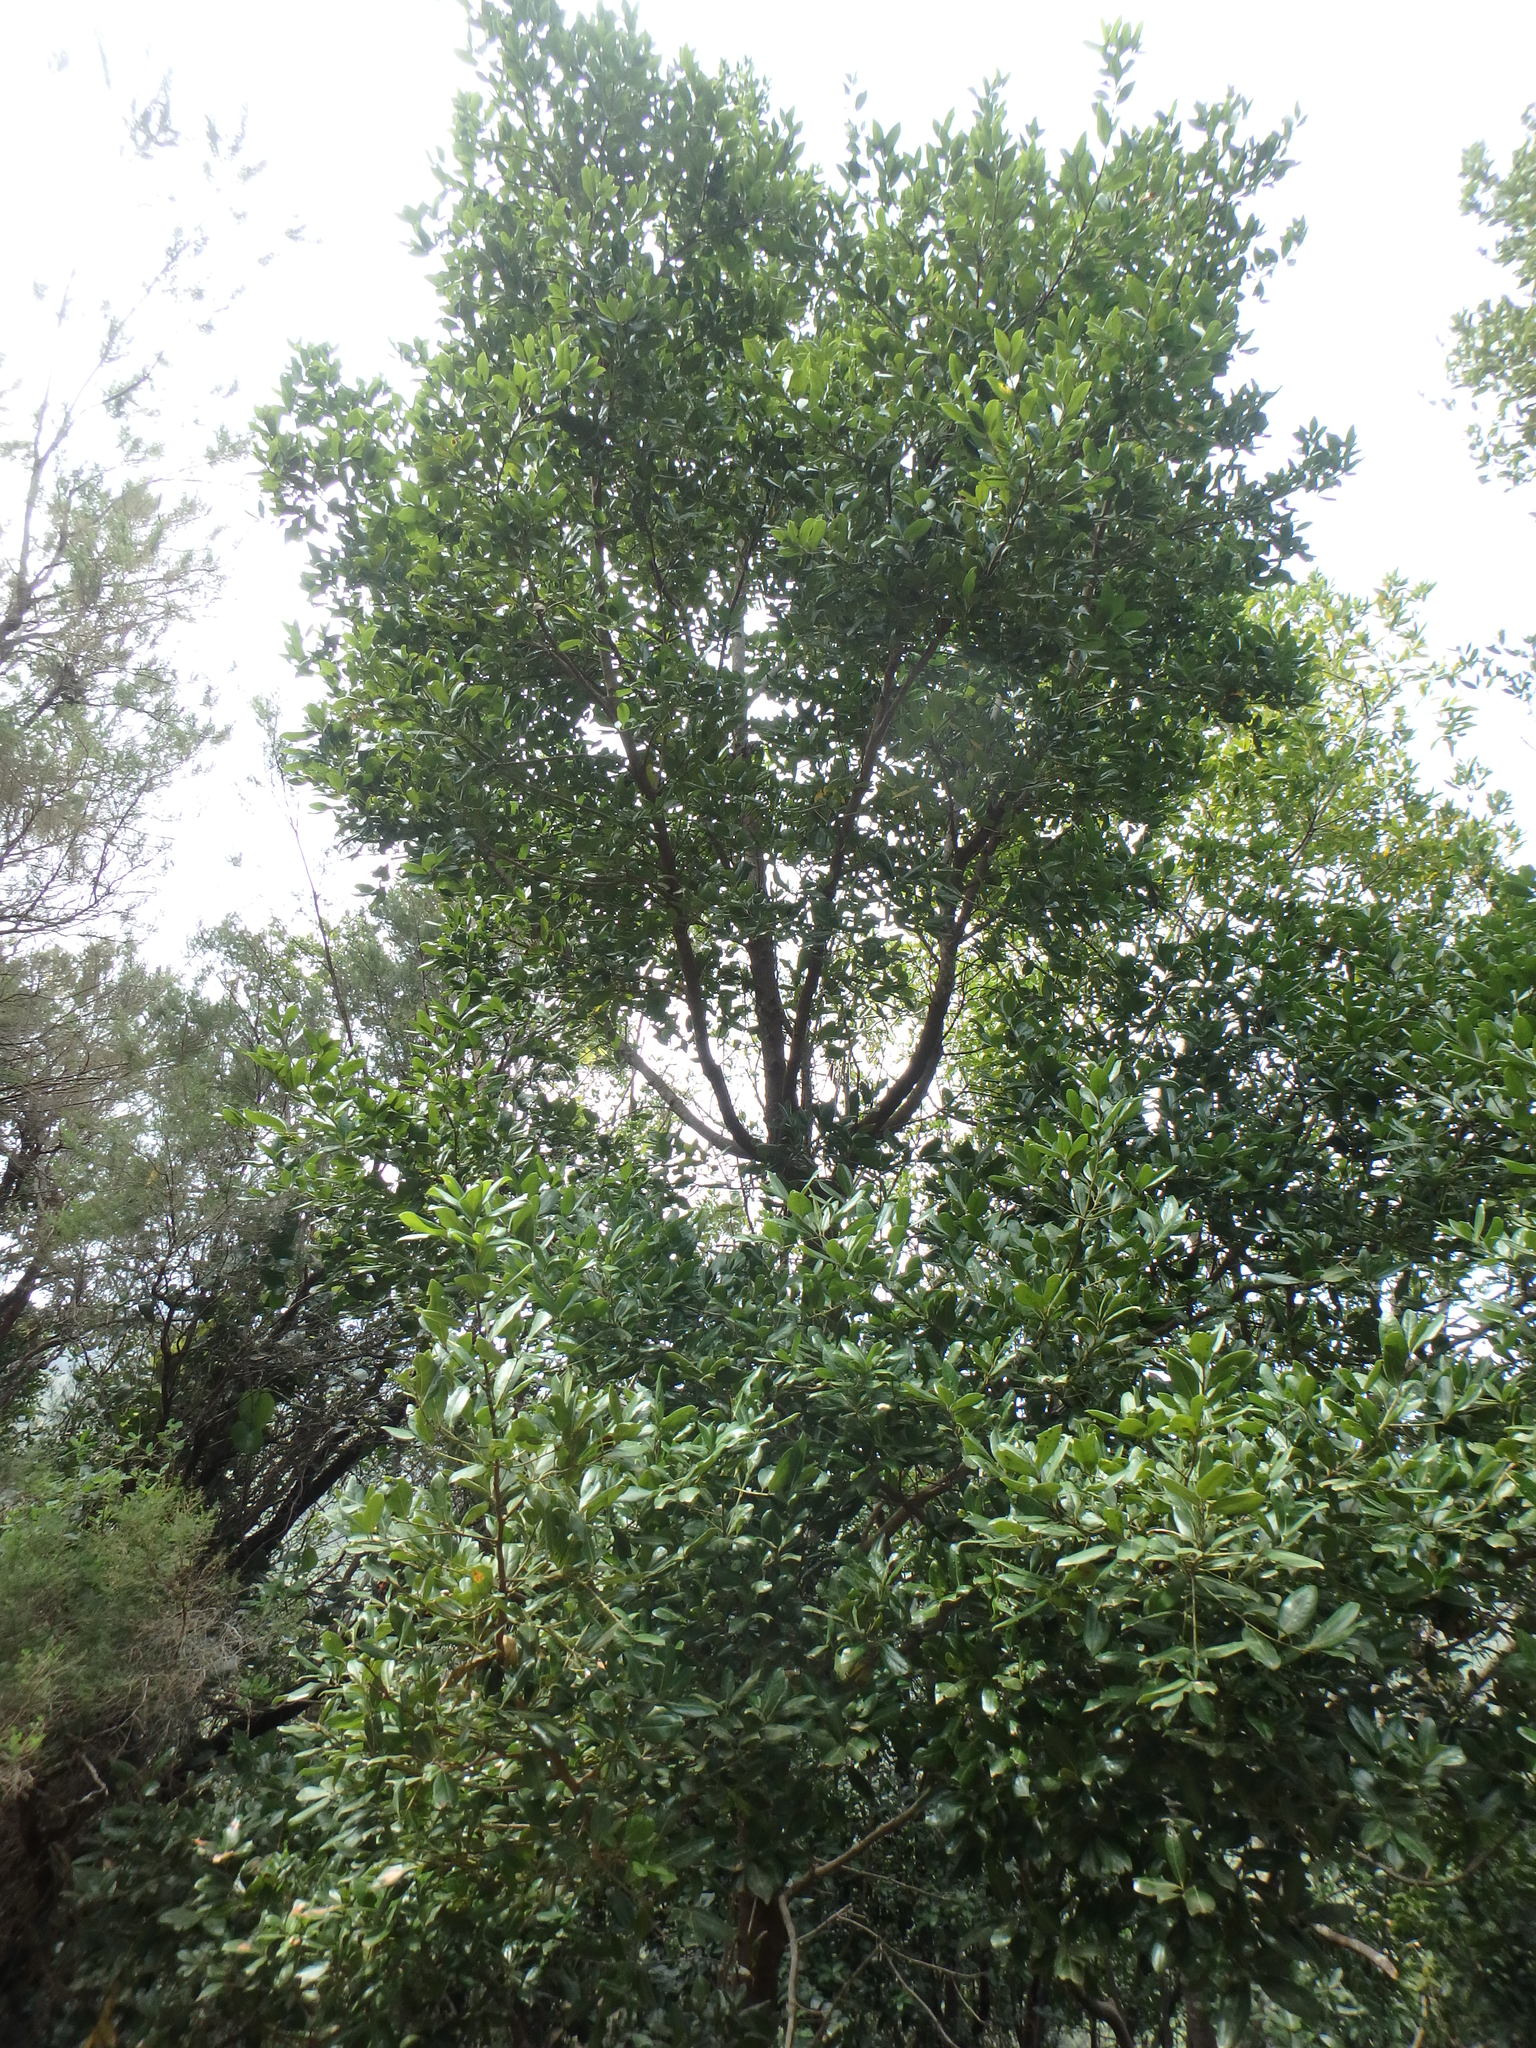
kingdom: Plantae
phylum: Tracheophyta
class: Magnoliopsida
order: Laurales
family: Lauraceae
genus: Apollonias
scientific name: Apollonias barbujana
